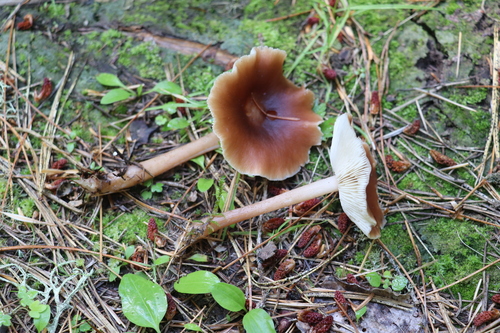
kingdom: Fungi
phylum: Basidiomycota
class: Agaricomycetes
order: Agaricales
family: Omphalotaceae
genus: Rhodocollybia
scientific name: Rhodocollybia butyracea
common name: Butter cap
